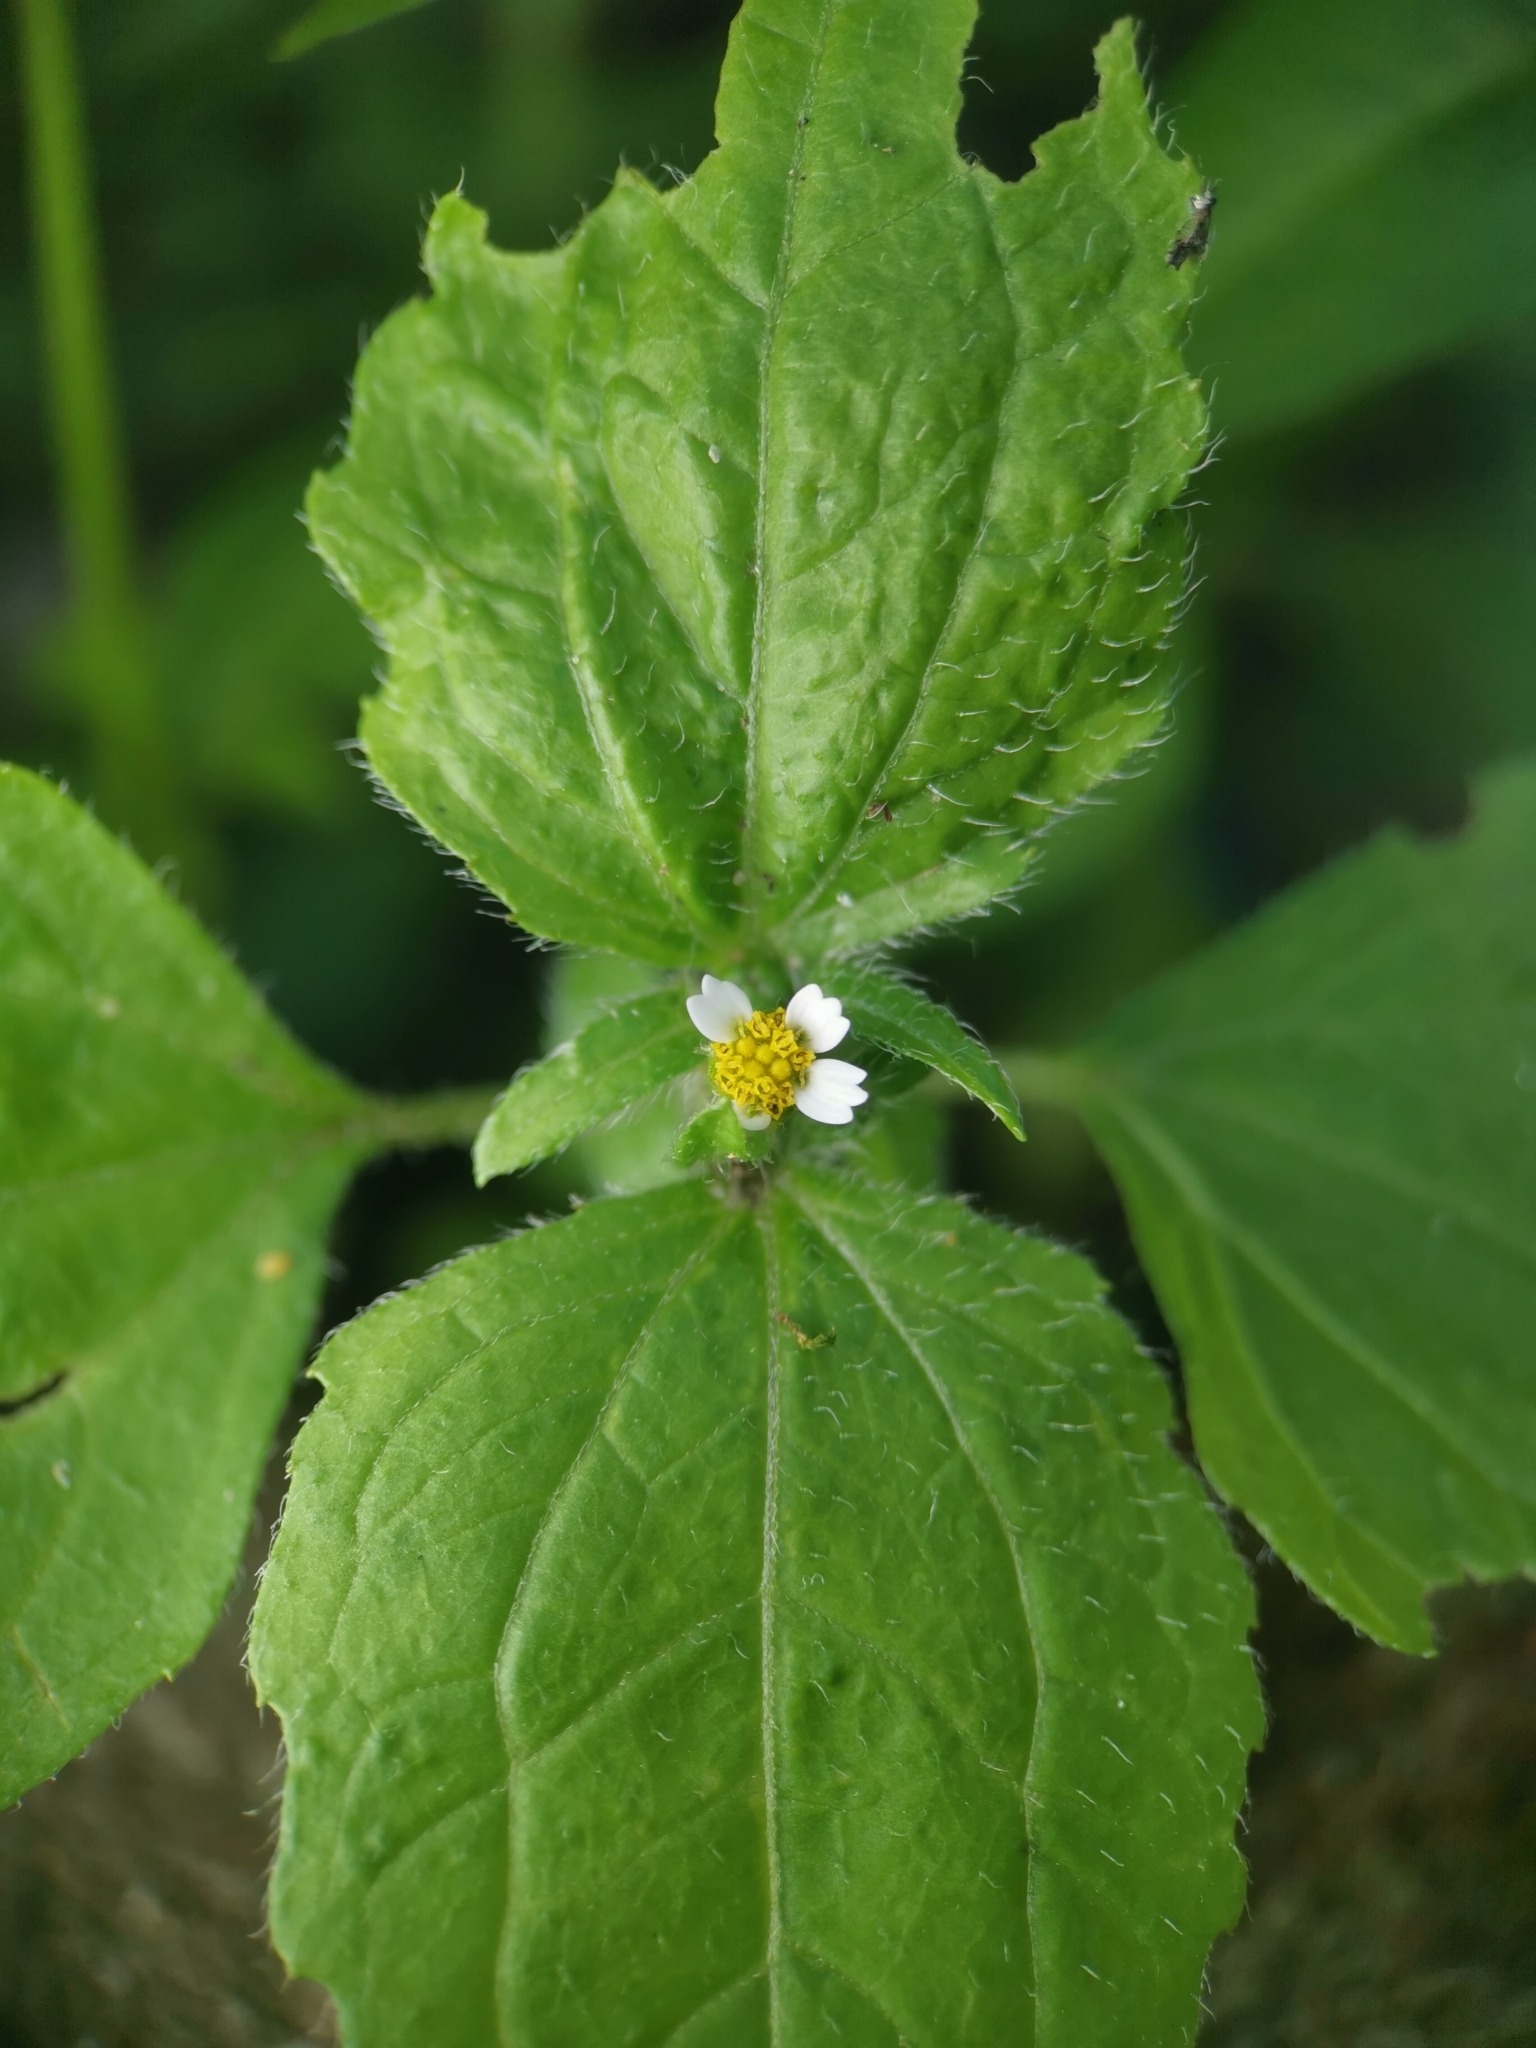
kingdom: Plantae
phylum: Tracheophyta
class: Magnoliopsida
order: Asterales
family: Asteraceae
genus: Galinsoga
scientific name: Galinsoga quadriradiata
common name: Shaggy soldier
